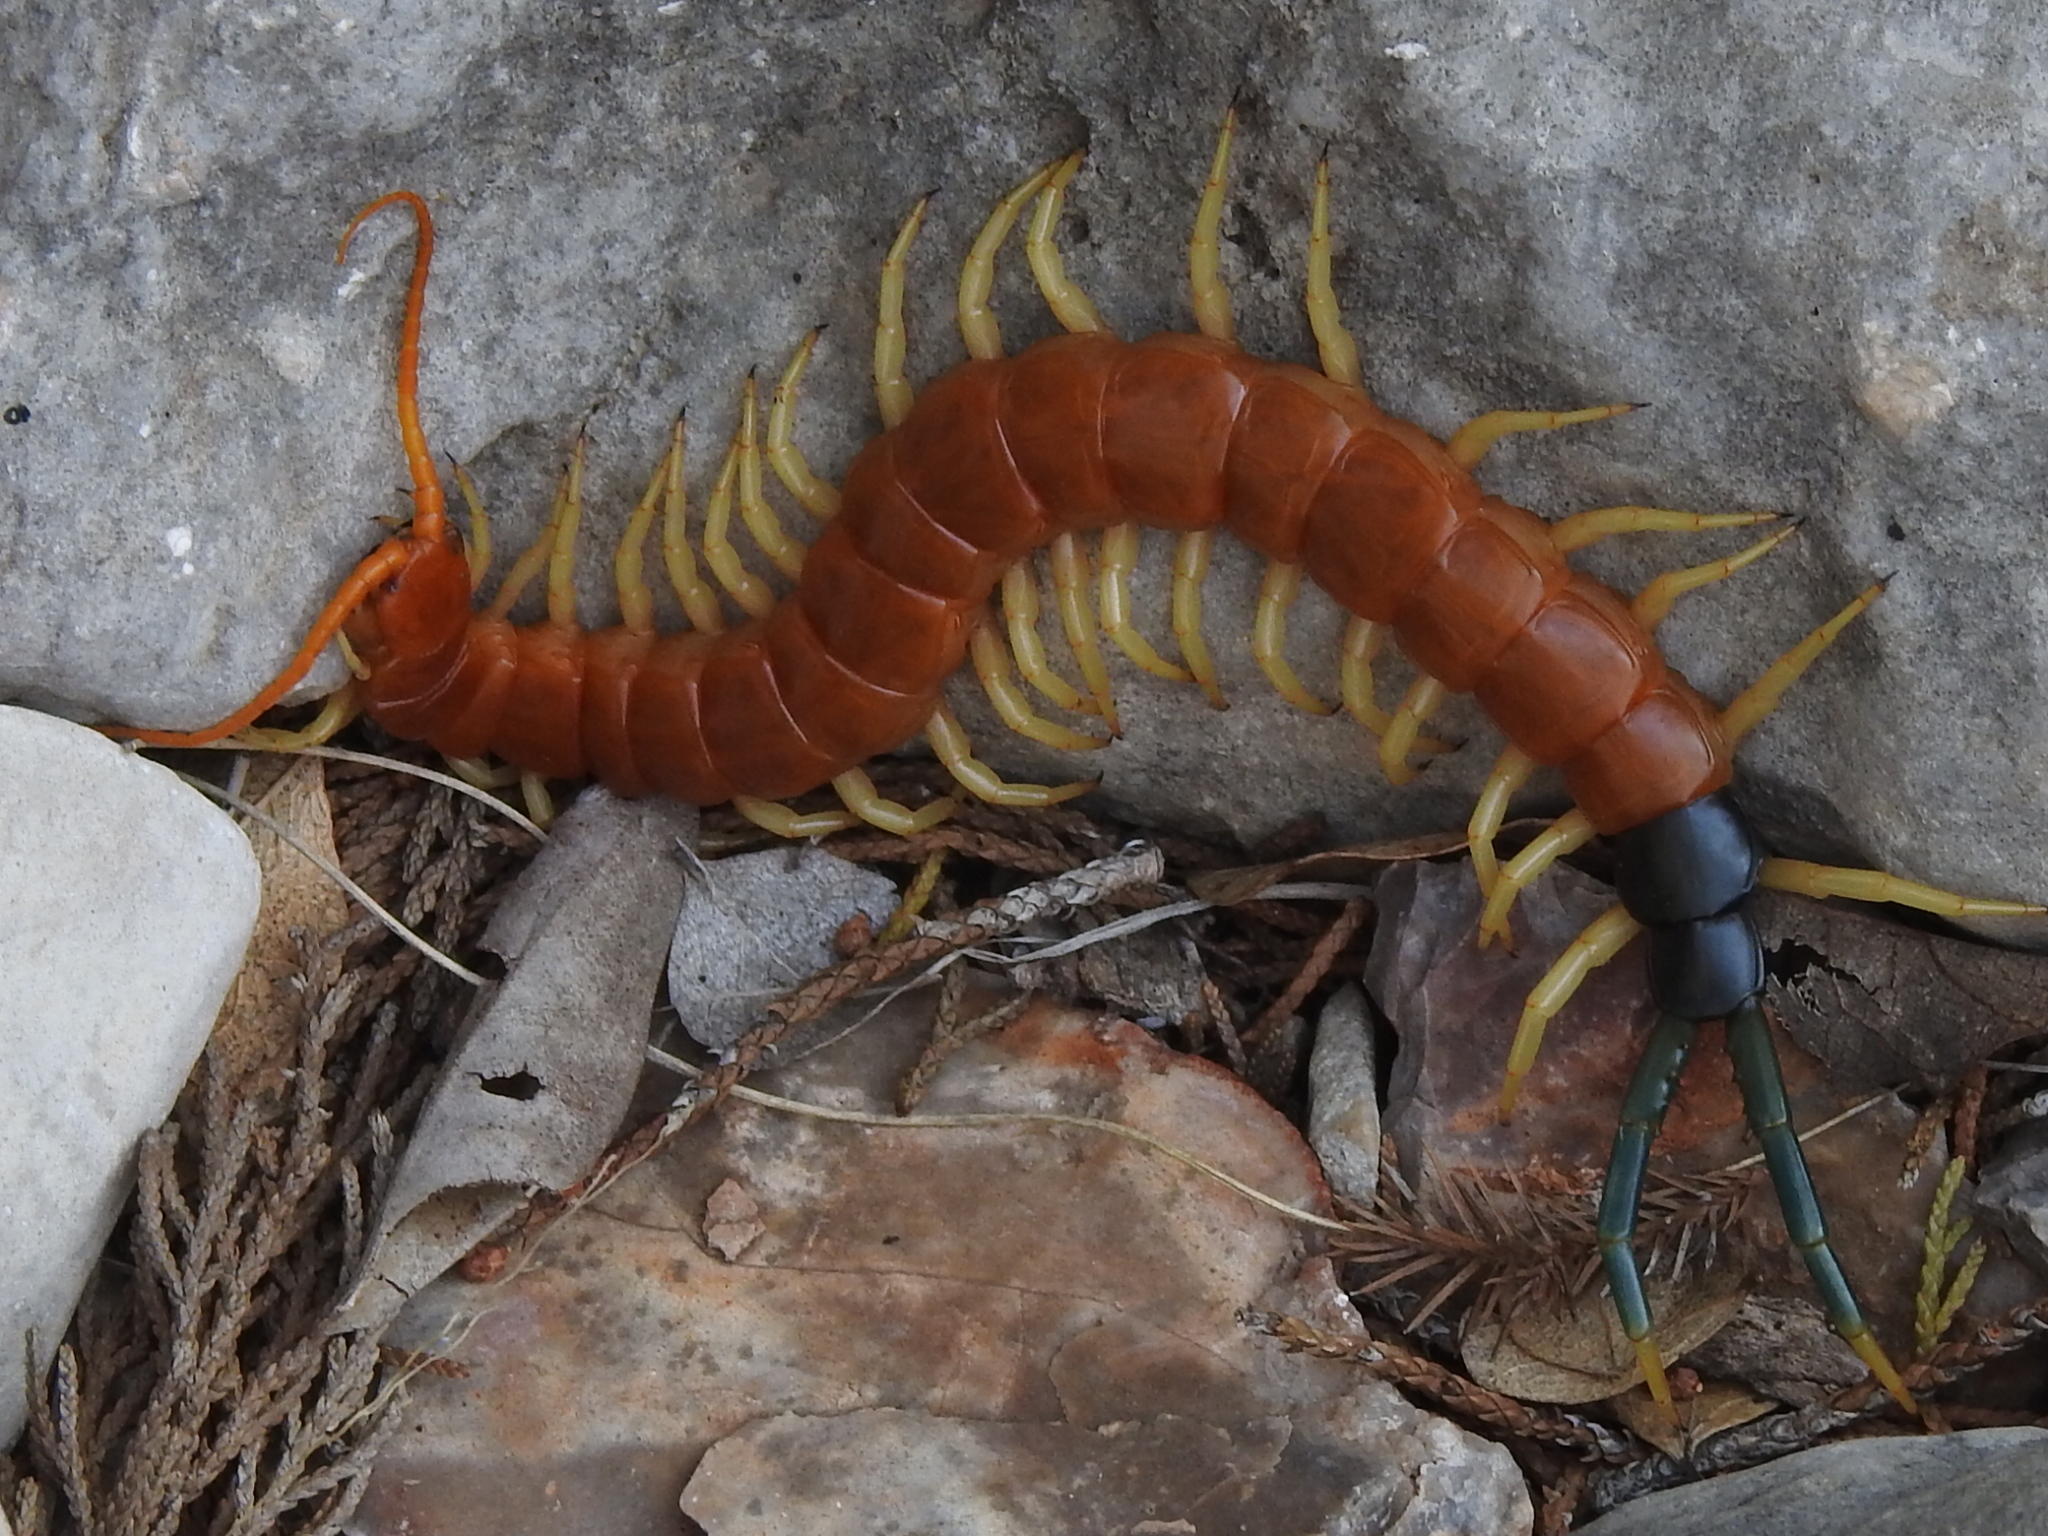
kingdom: Animalia
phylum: Arthropoda
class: Chilopoda
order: Scolopendromorpha
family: Scolopendridae
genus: Scolopendra
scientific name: Scolopendra heros
